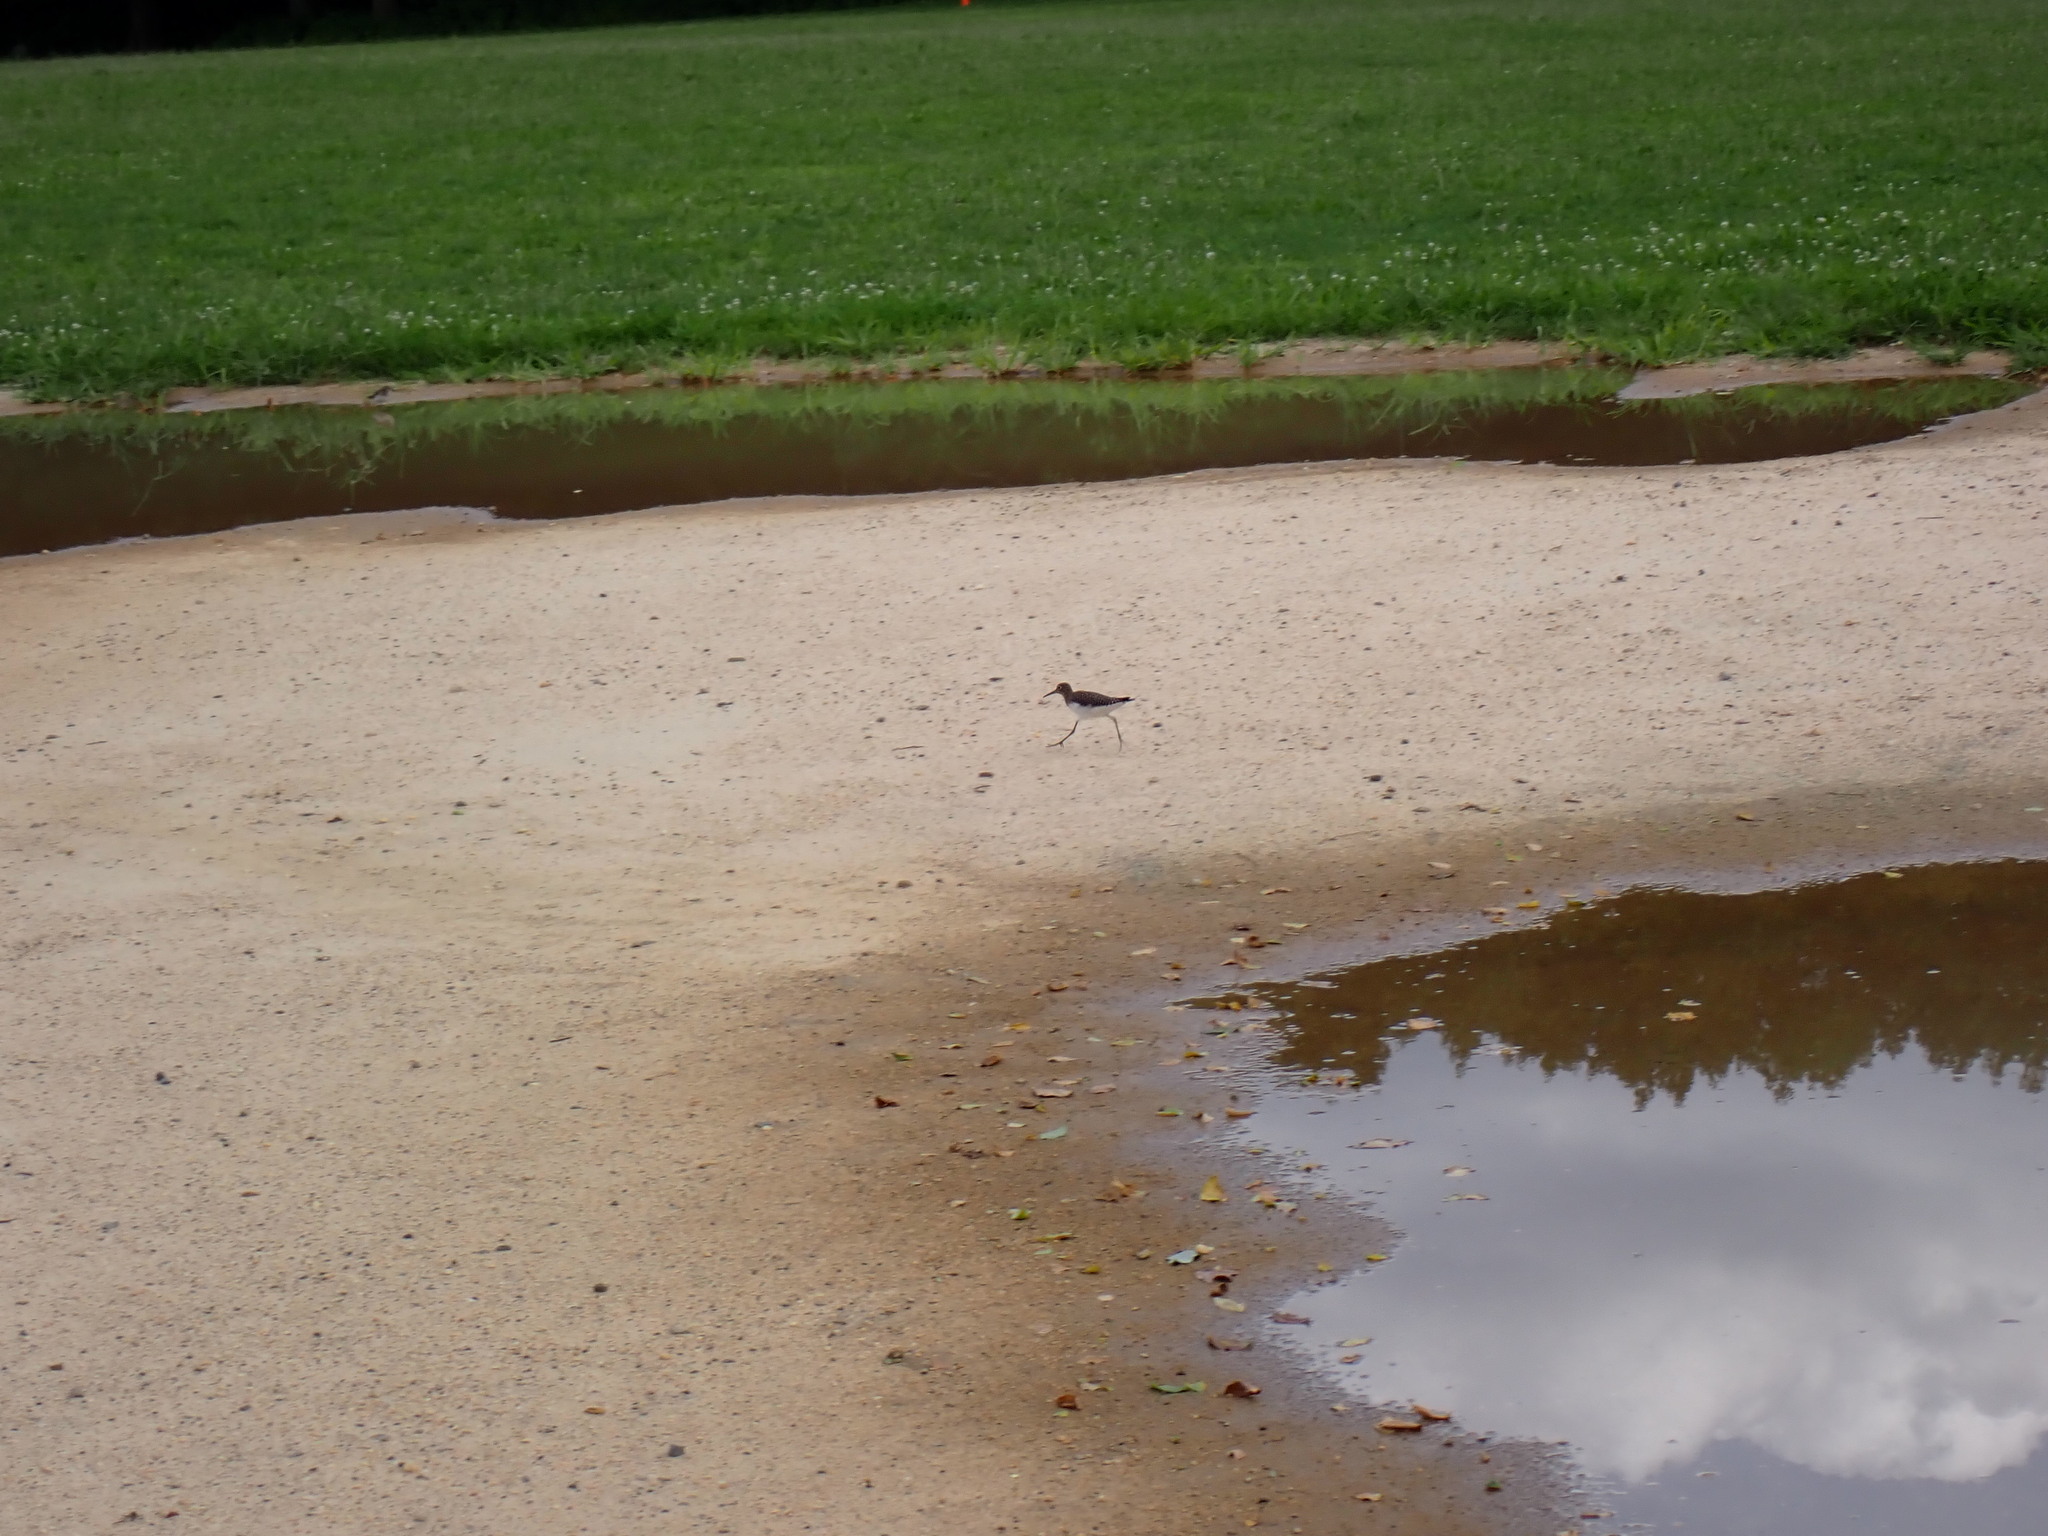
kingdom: Animalia
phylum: Chordata
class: Aves
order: Charadriiformes
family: Scolopacidae
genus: Tringa
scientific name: Tringa solitaria
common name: Solitary sandpiper
